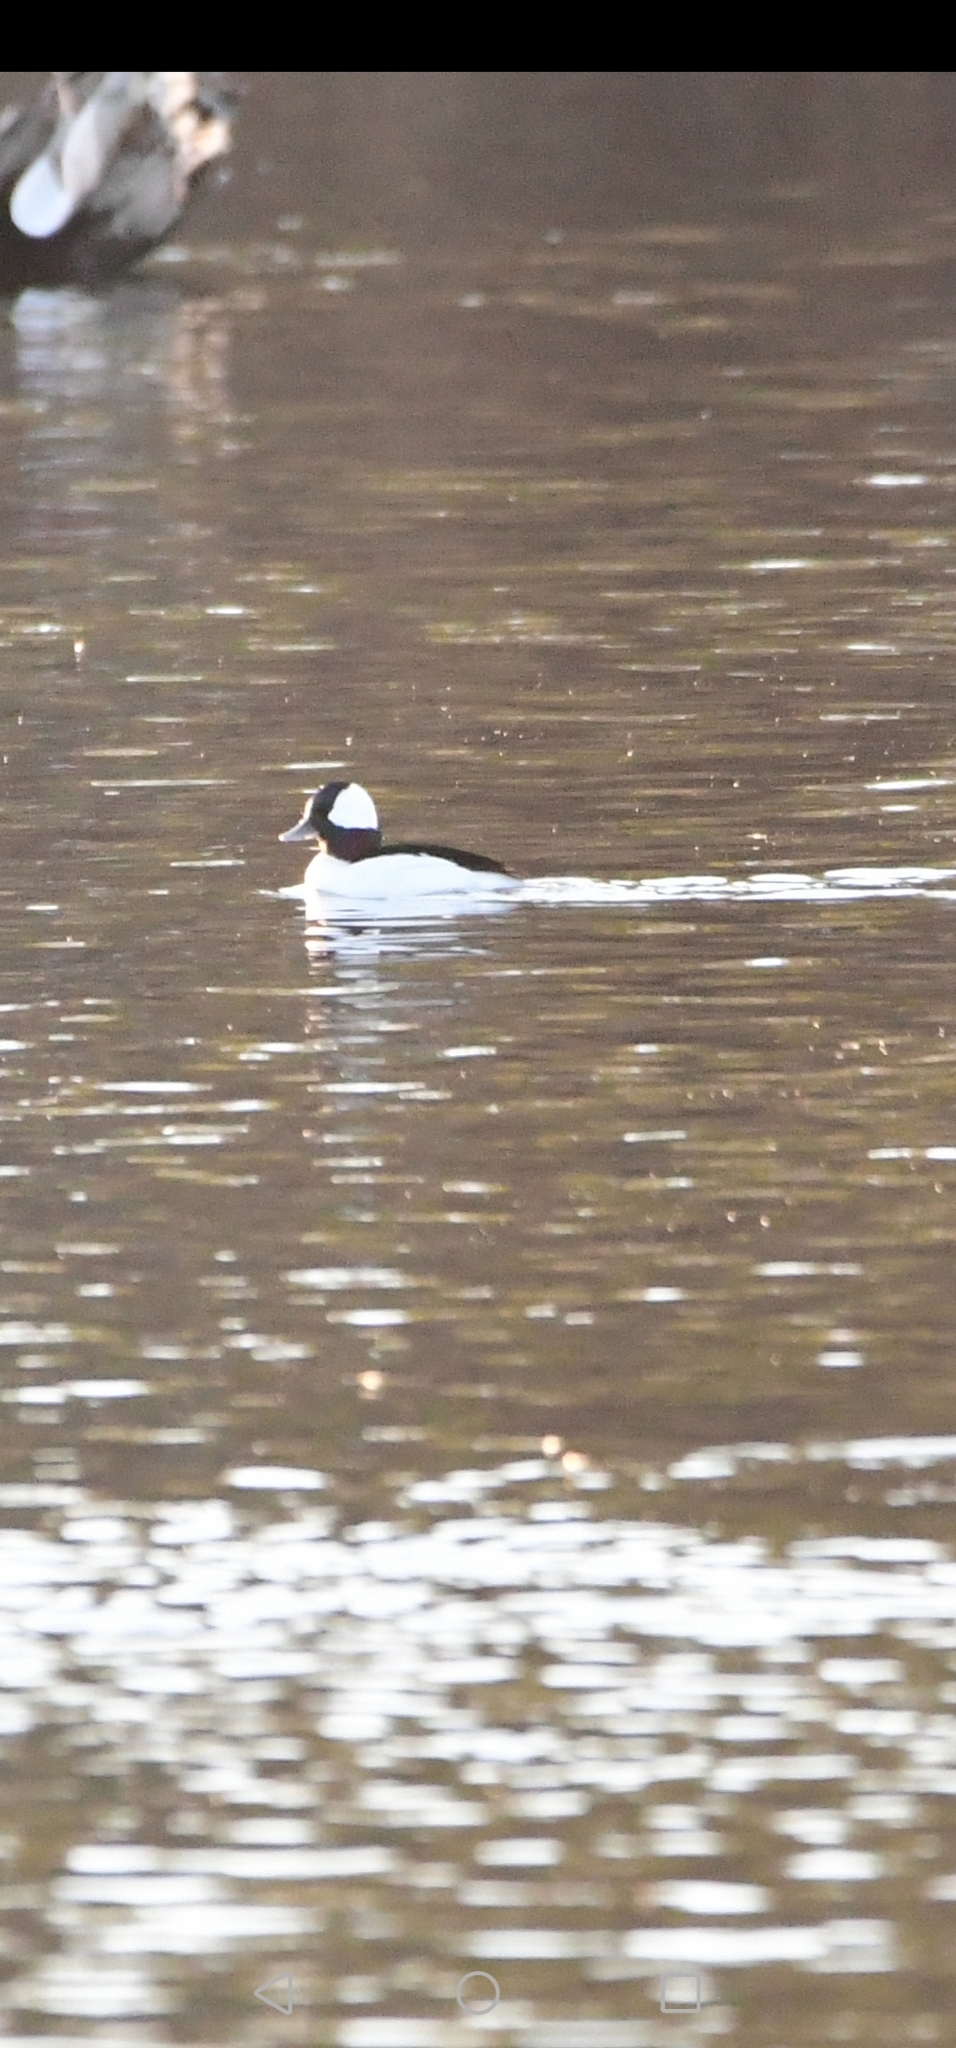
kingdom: Animalia
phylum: Chordata
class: Aves
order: Anseriformes
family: Anatidae
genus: Bucephala
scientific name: Bucephala albeola
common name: Bufflehead
